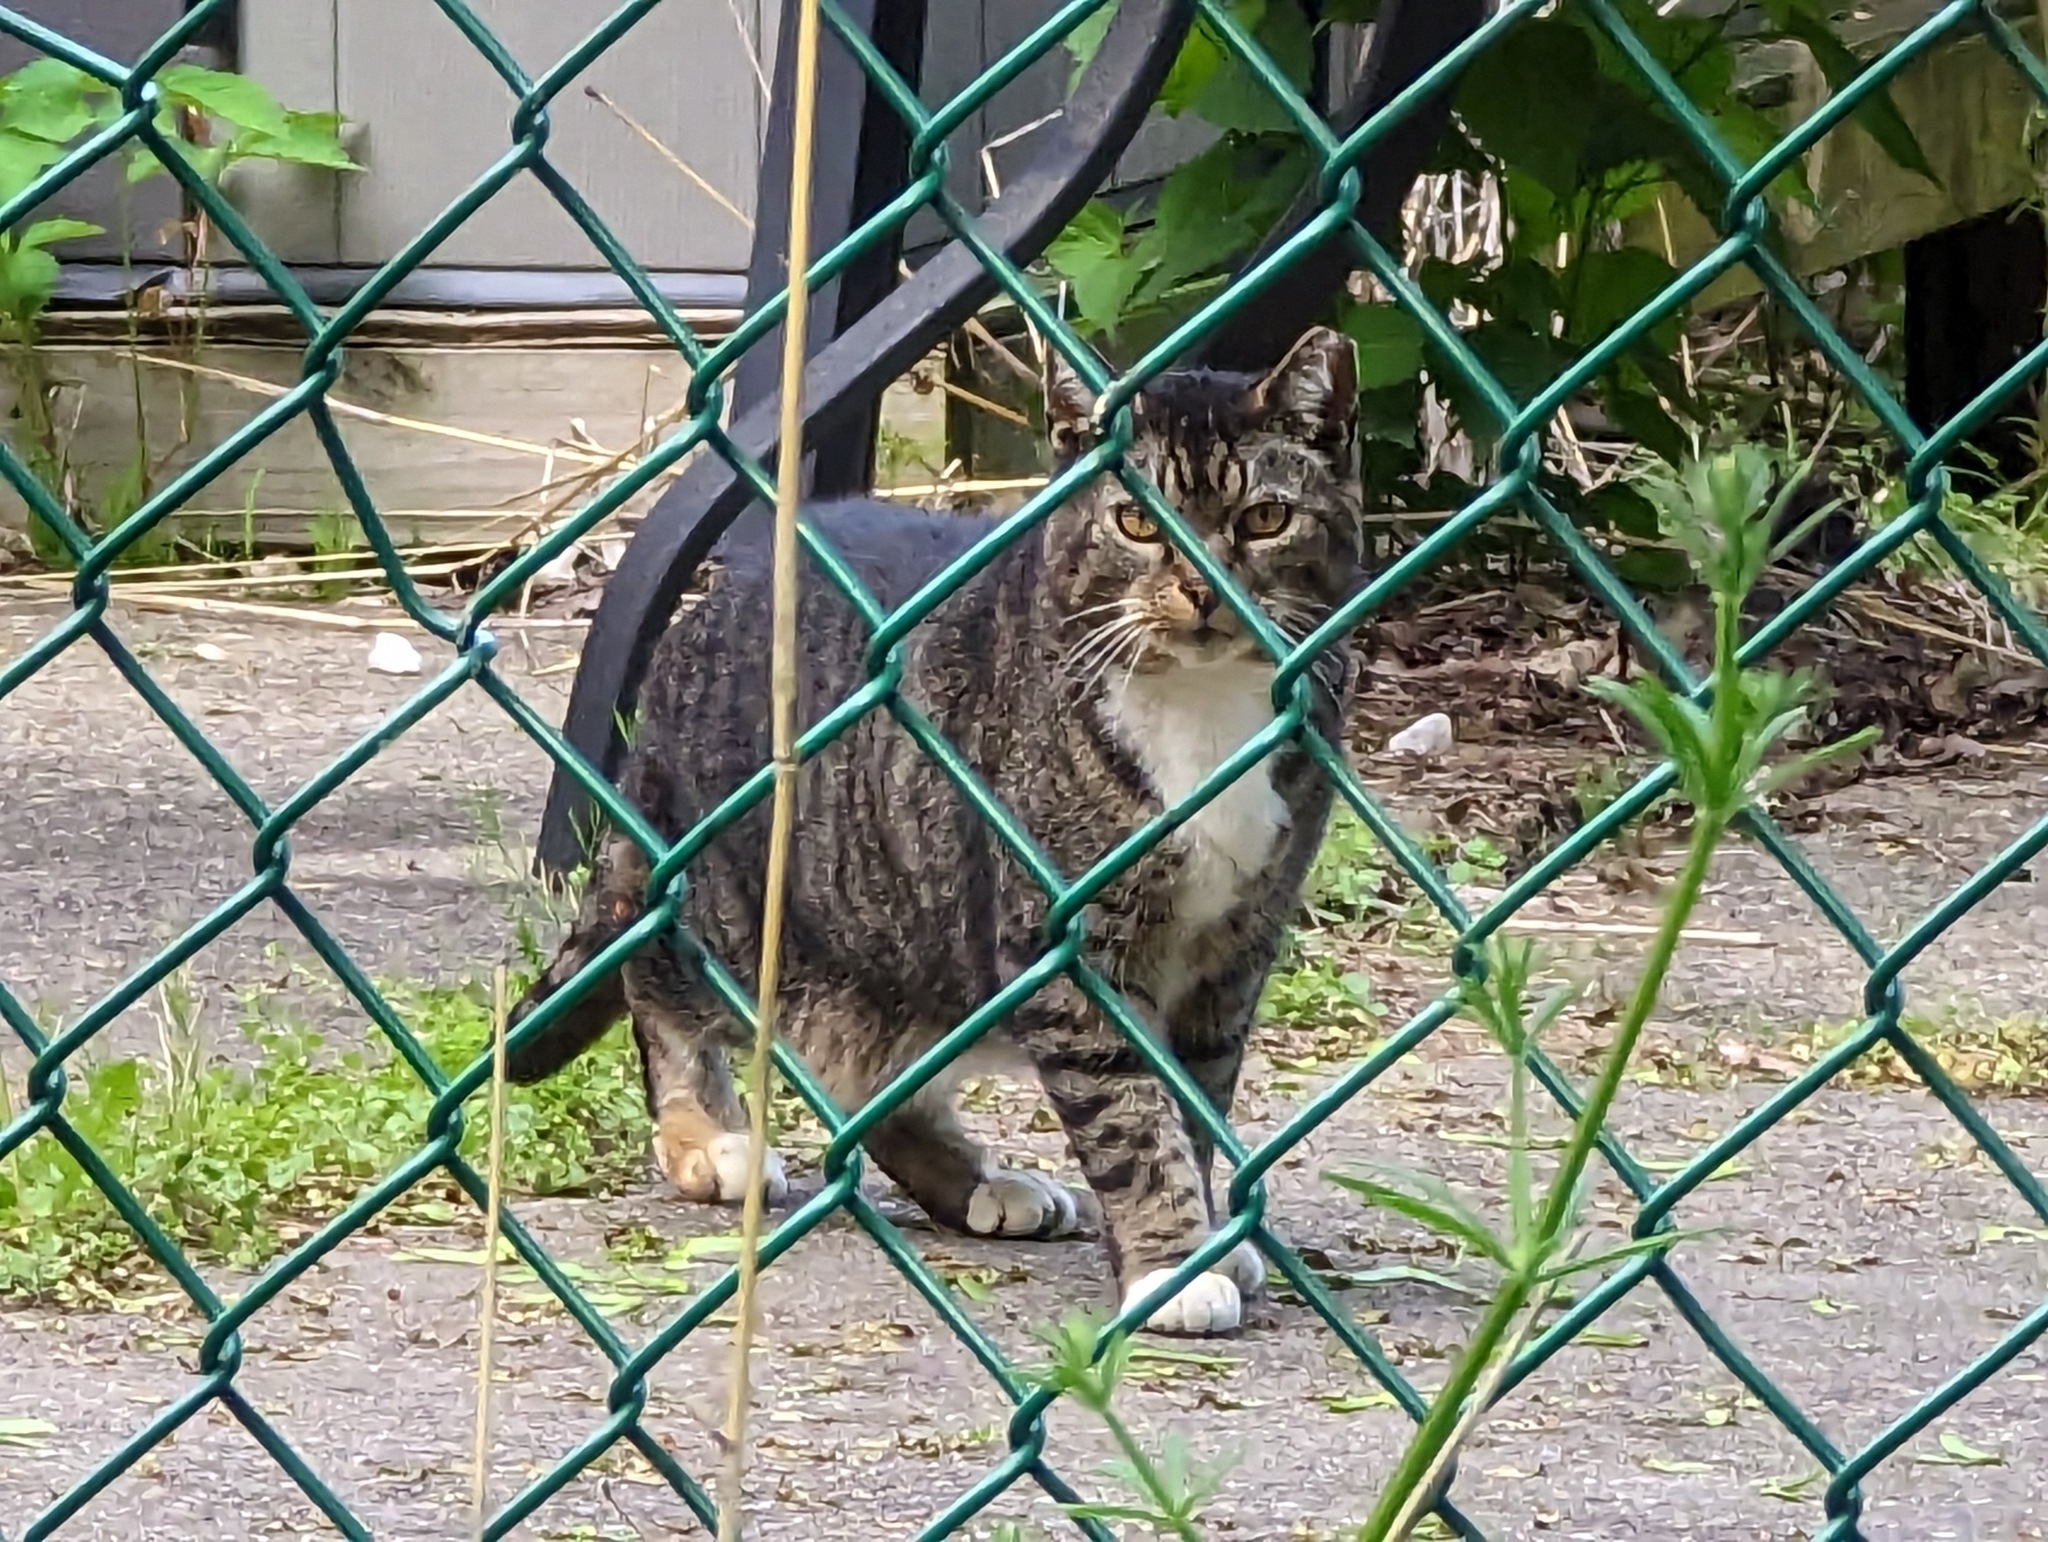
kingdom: Animalia
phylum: Chordata
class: Mammalia
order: Carnivora
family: Felidae
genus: Felis
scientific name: Felis catus
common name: Domestic cat
